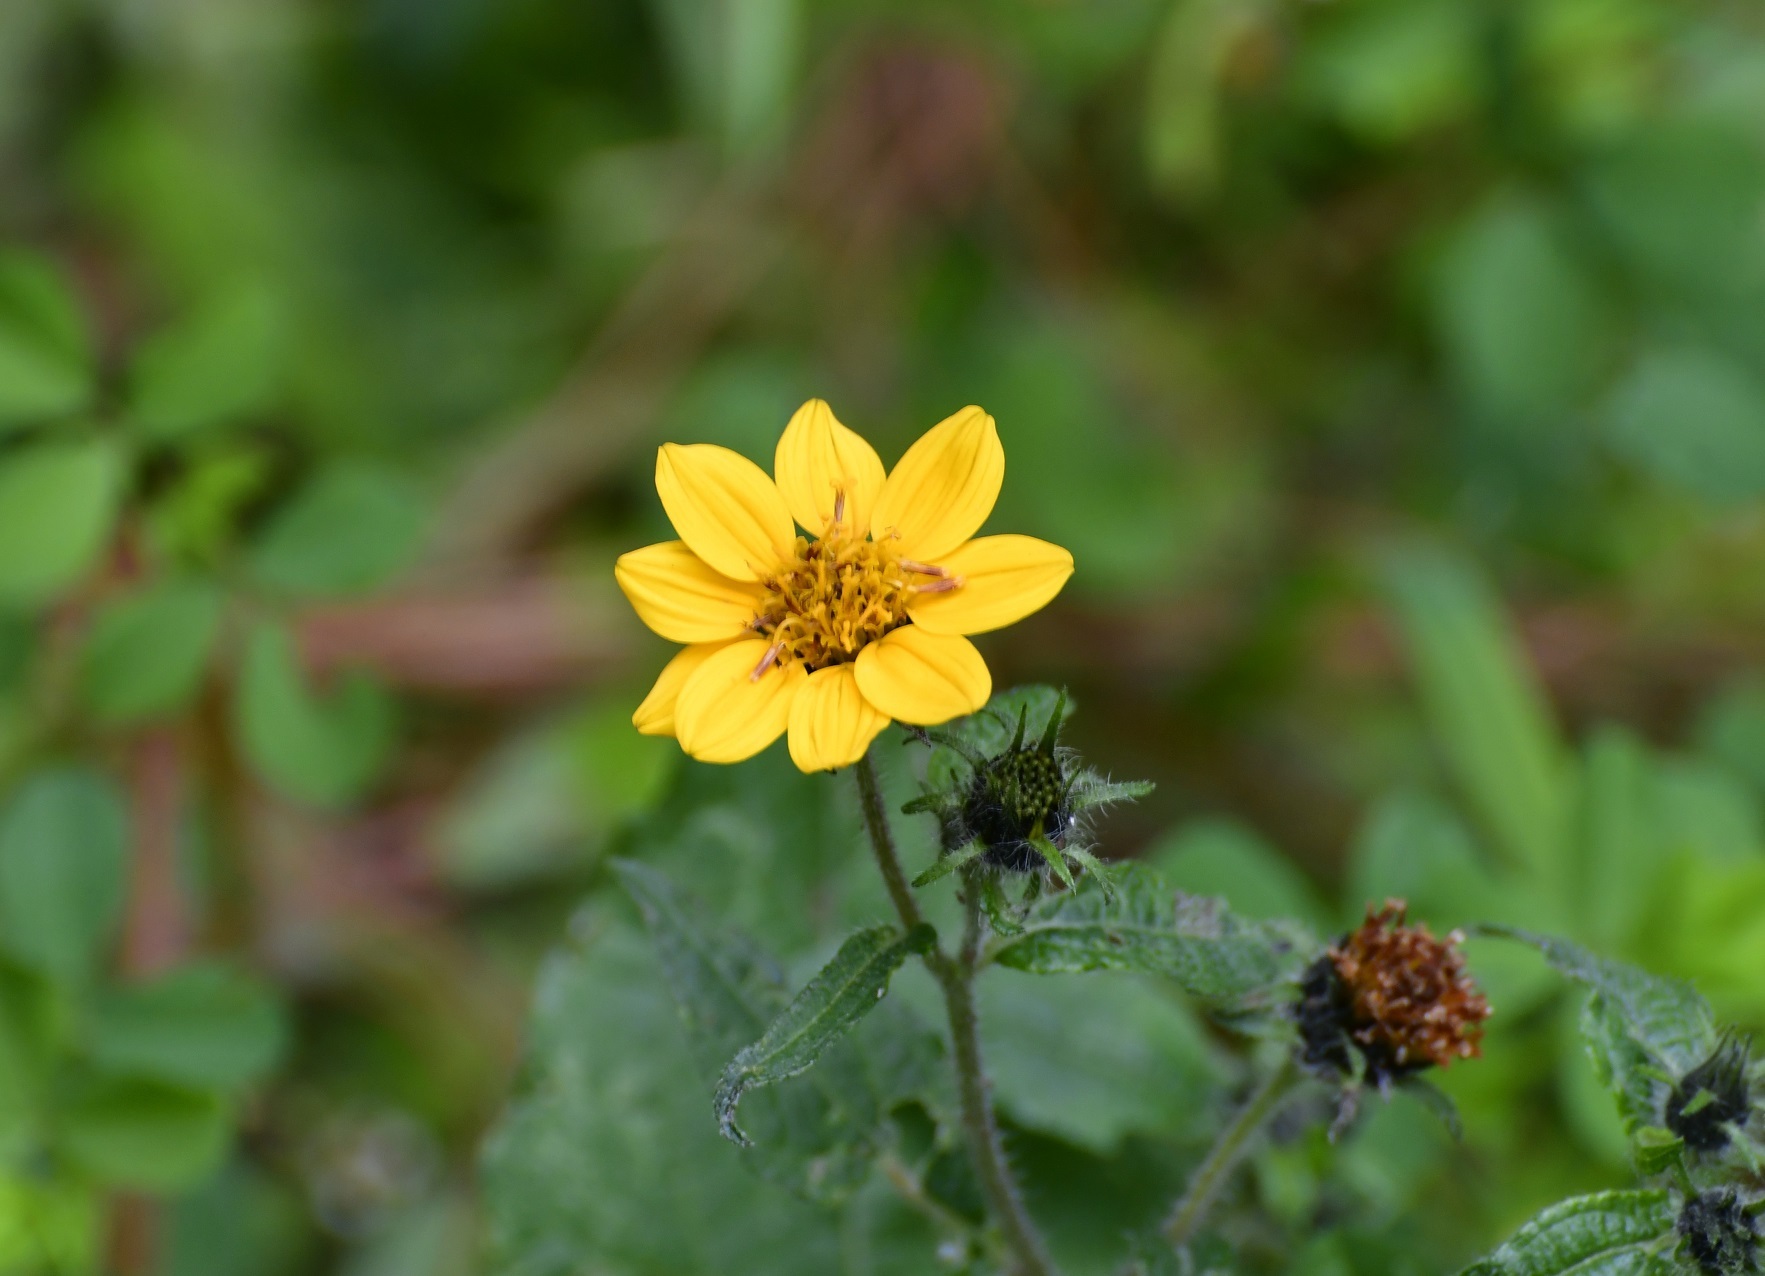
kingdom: Plantae
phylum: Tracheophyta
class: Magnoliopsida
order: Asterales
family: Asteraceae
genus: Simsia
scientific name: Simsia amplexicaulis
